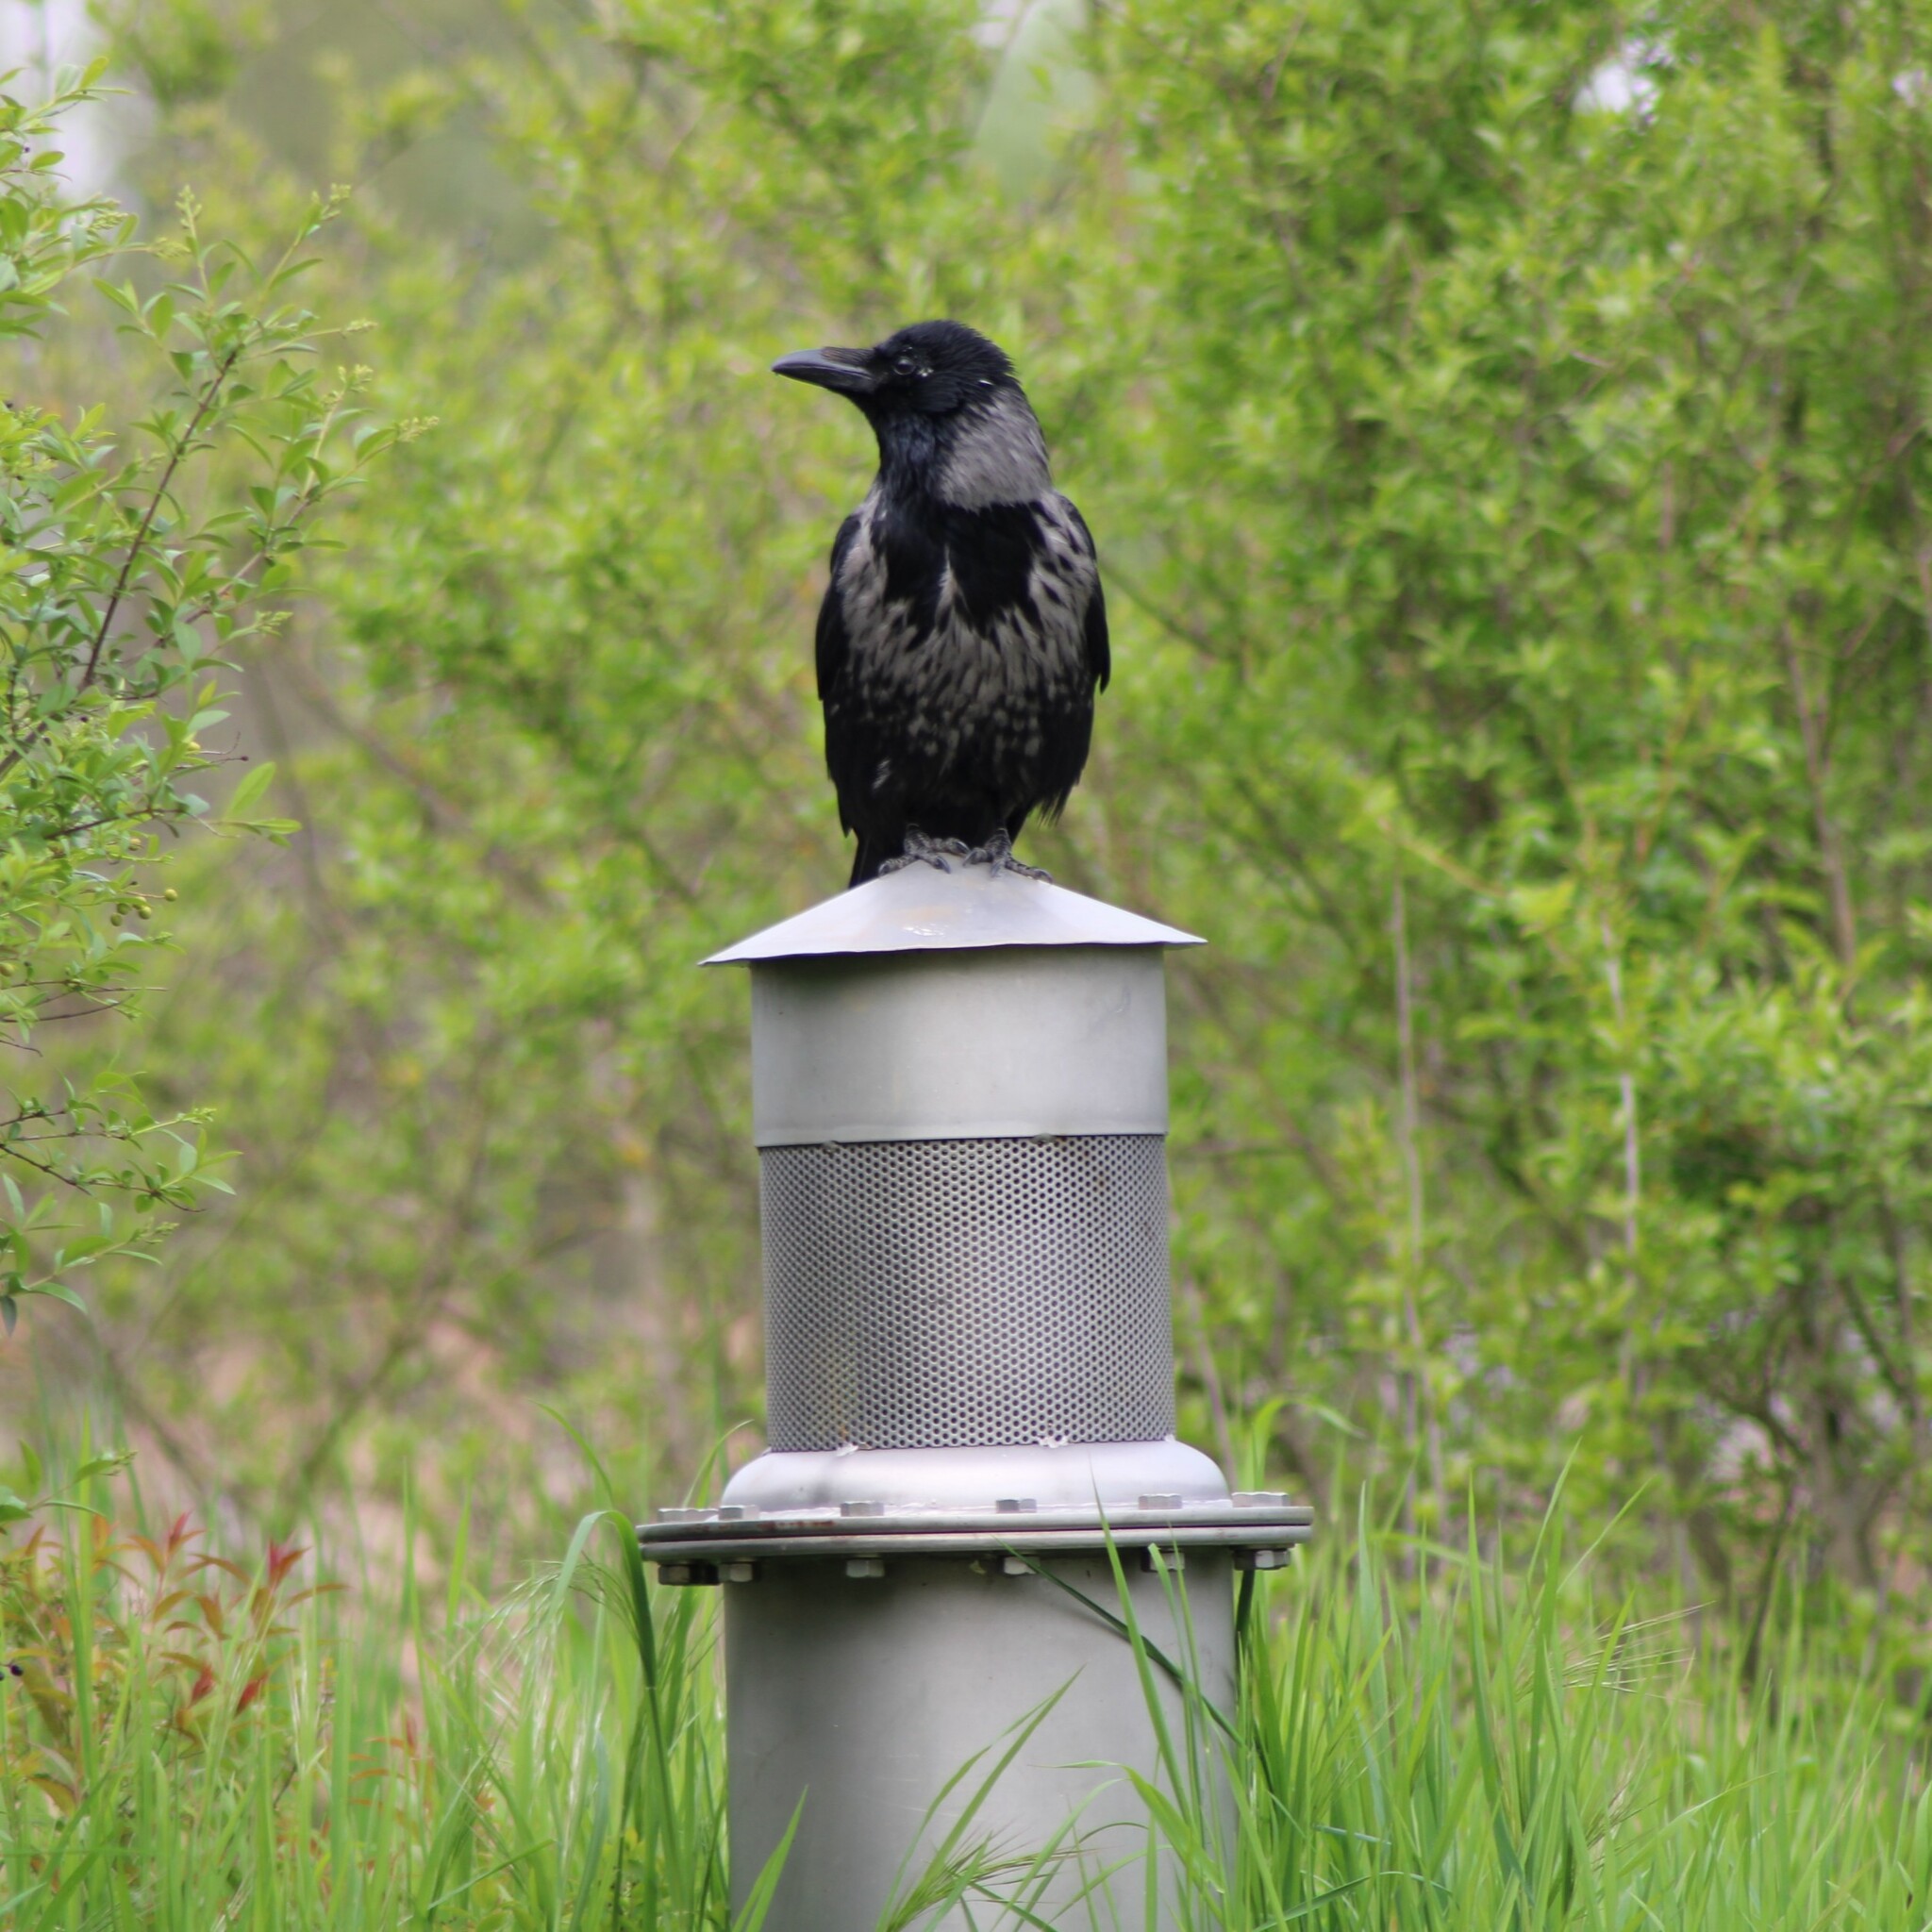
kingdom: Animalia
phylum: Chordata
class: Aves
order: Passeriformes
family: Corvidae
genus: Corvus
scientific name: Corvus
